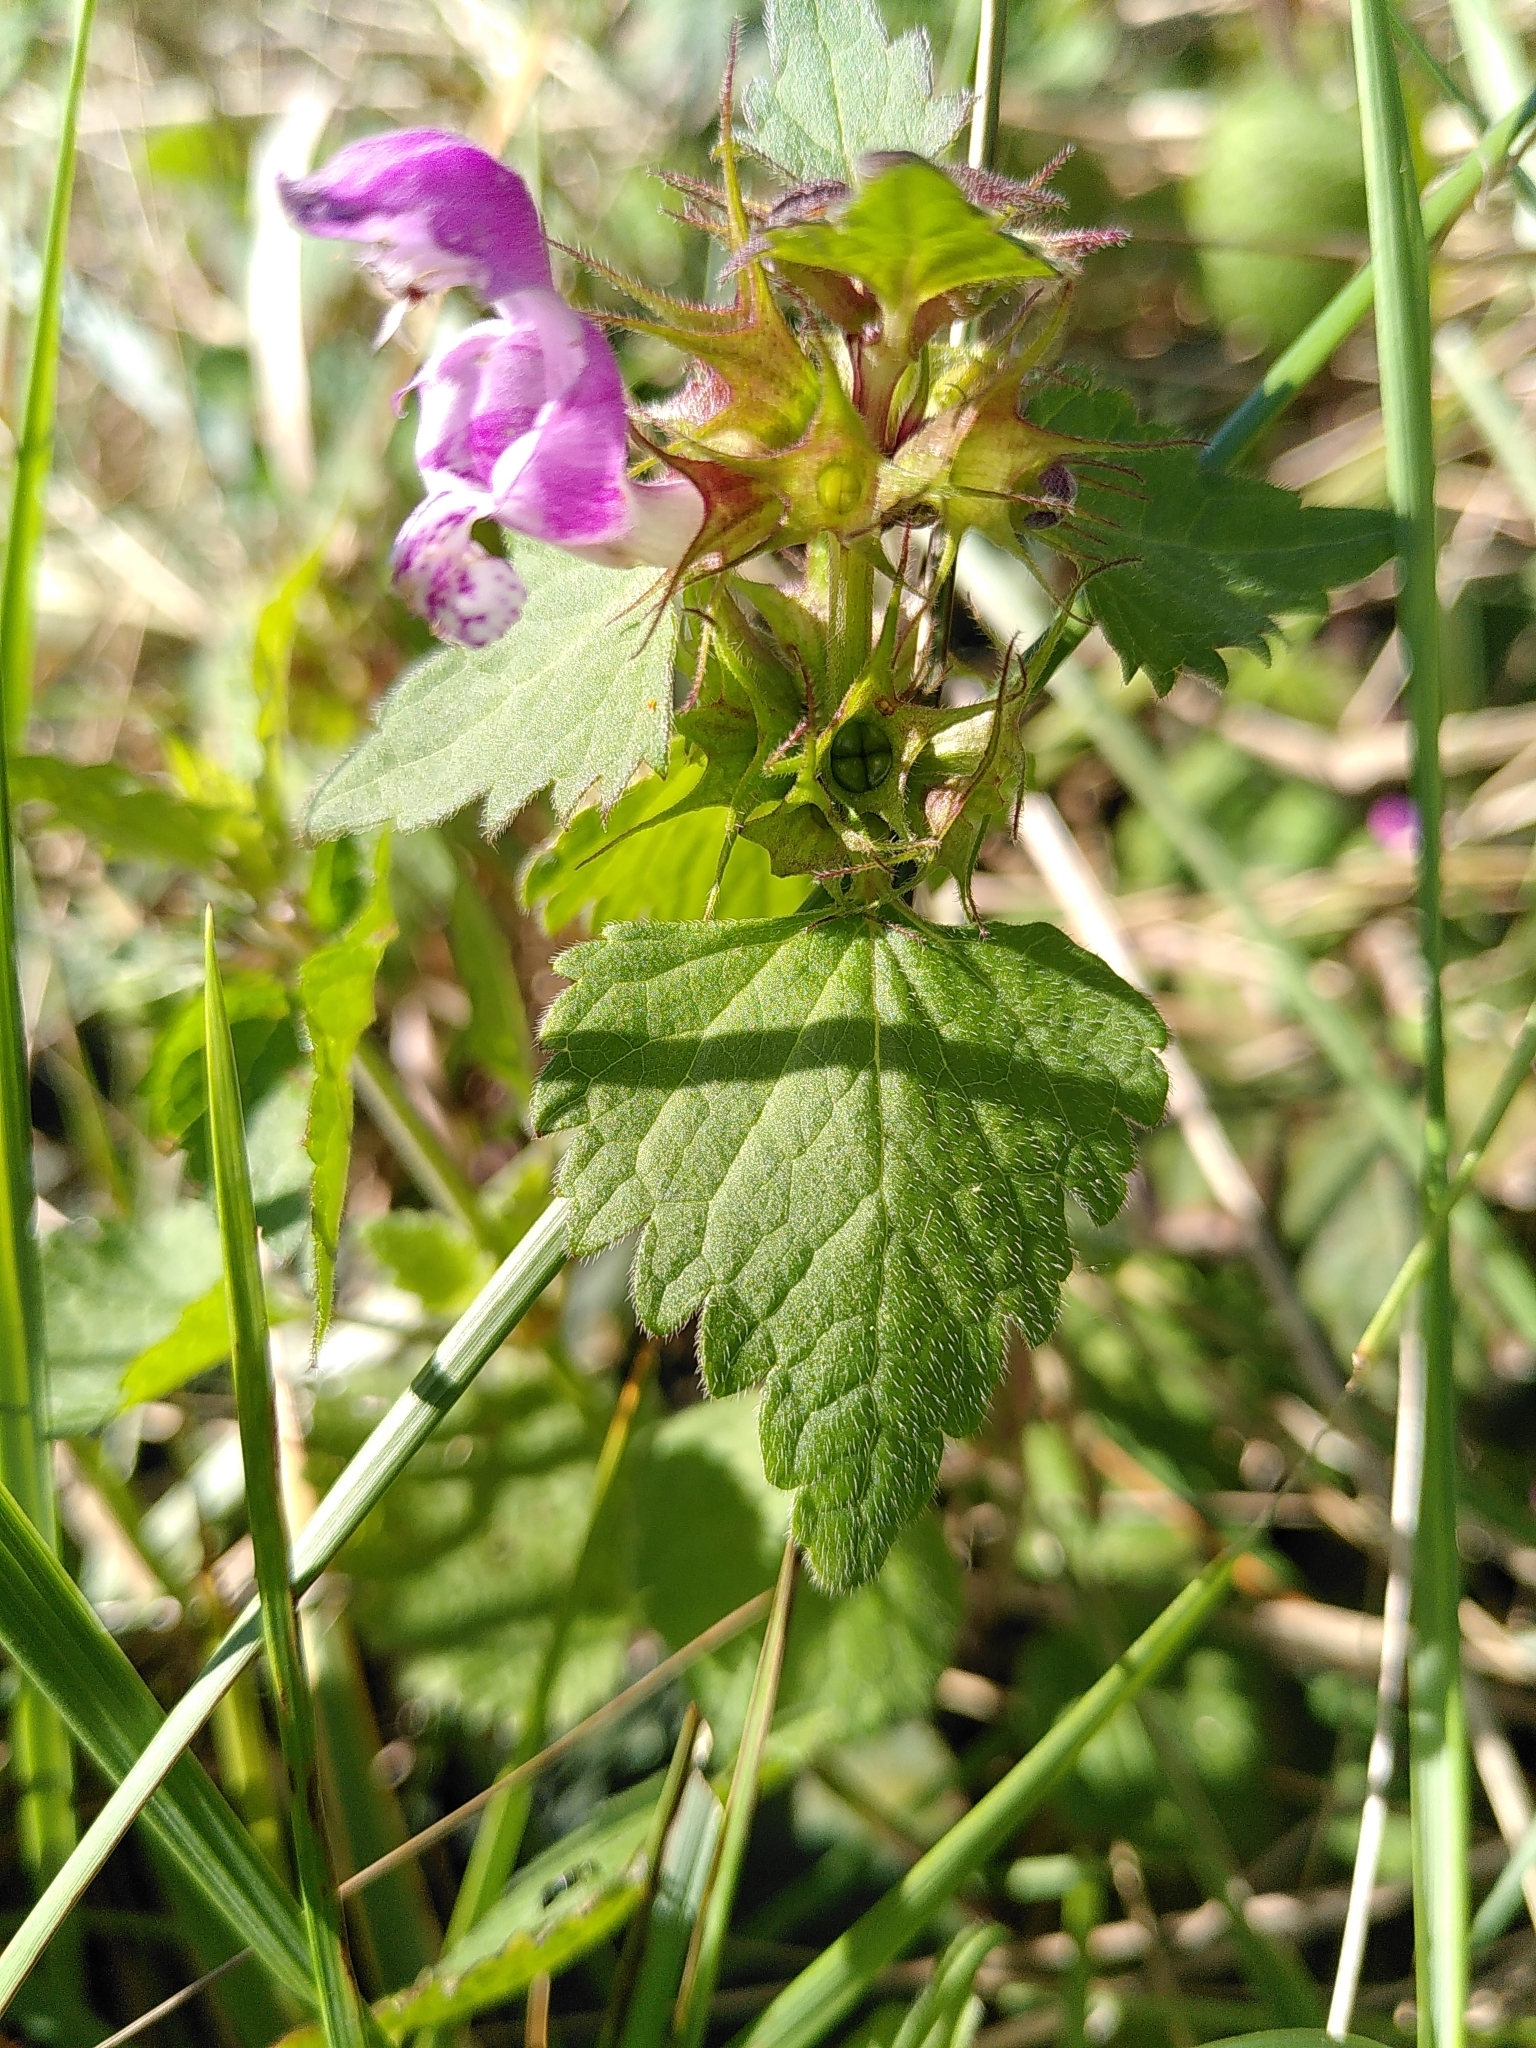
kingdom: Plantae
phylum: Tracheophyta
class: Magnoliopsida
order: Lamiales
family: Lamiaceae
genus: Lamium
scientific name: Lamium maculatum
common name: Spotted dead-nettle
